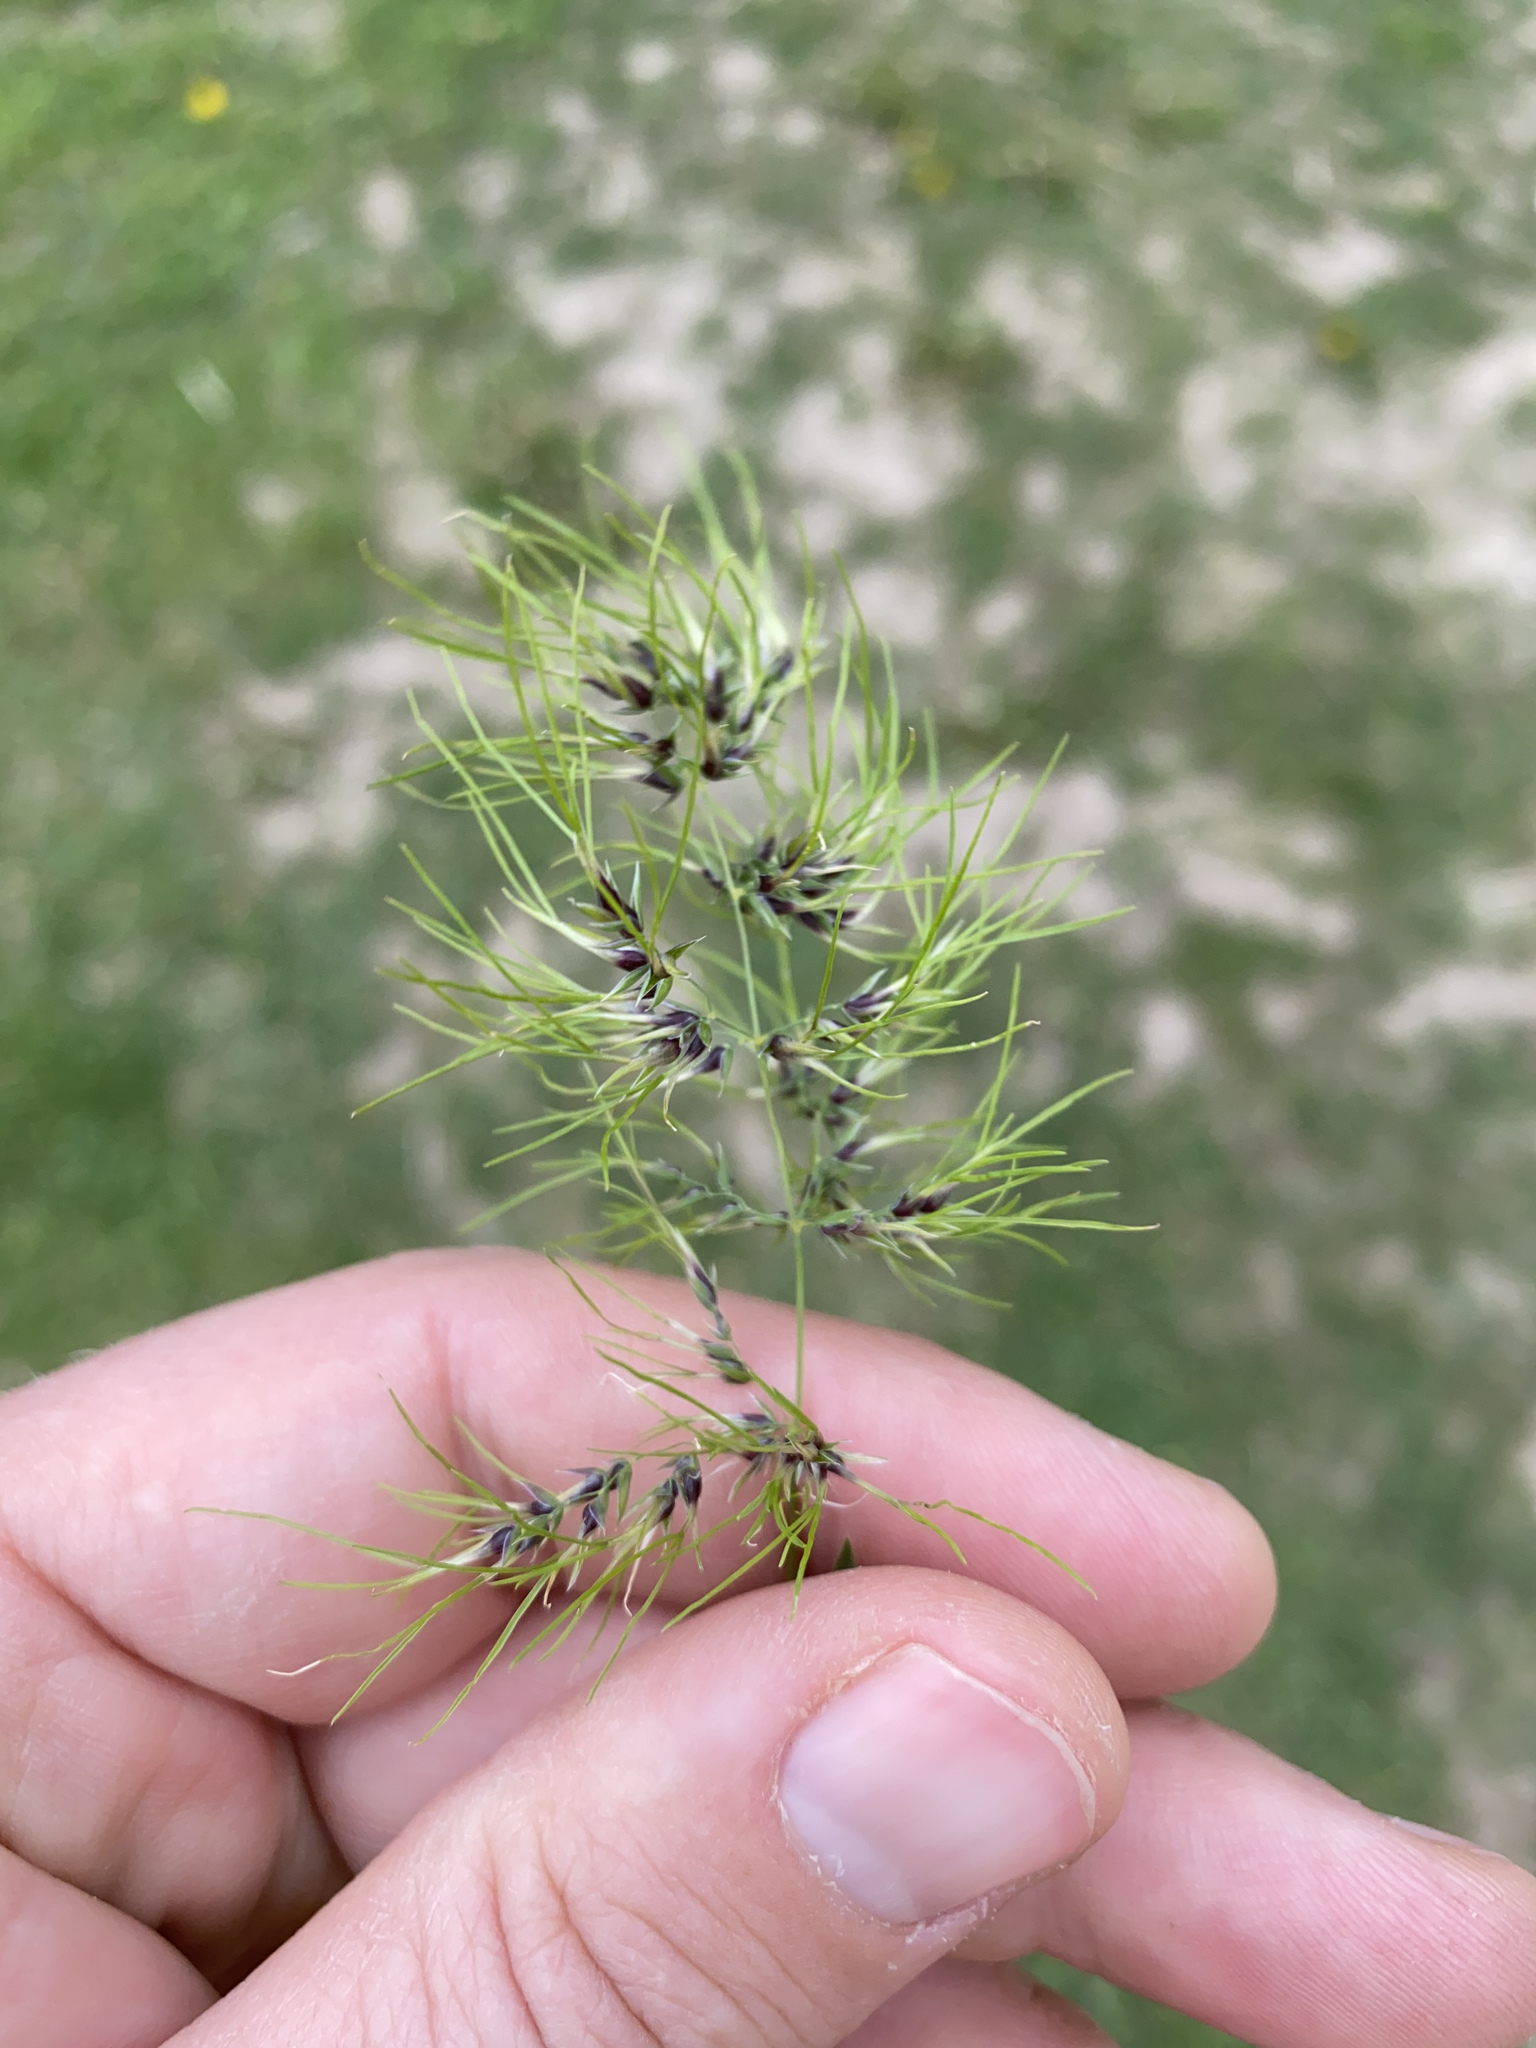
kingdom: Plantae
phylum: Tracheophyta
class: Liliopsida
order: Poales
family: Poaceae
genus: Poa
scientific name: Poa bulbosa
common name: Bulbous bluegrass
